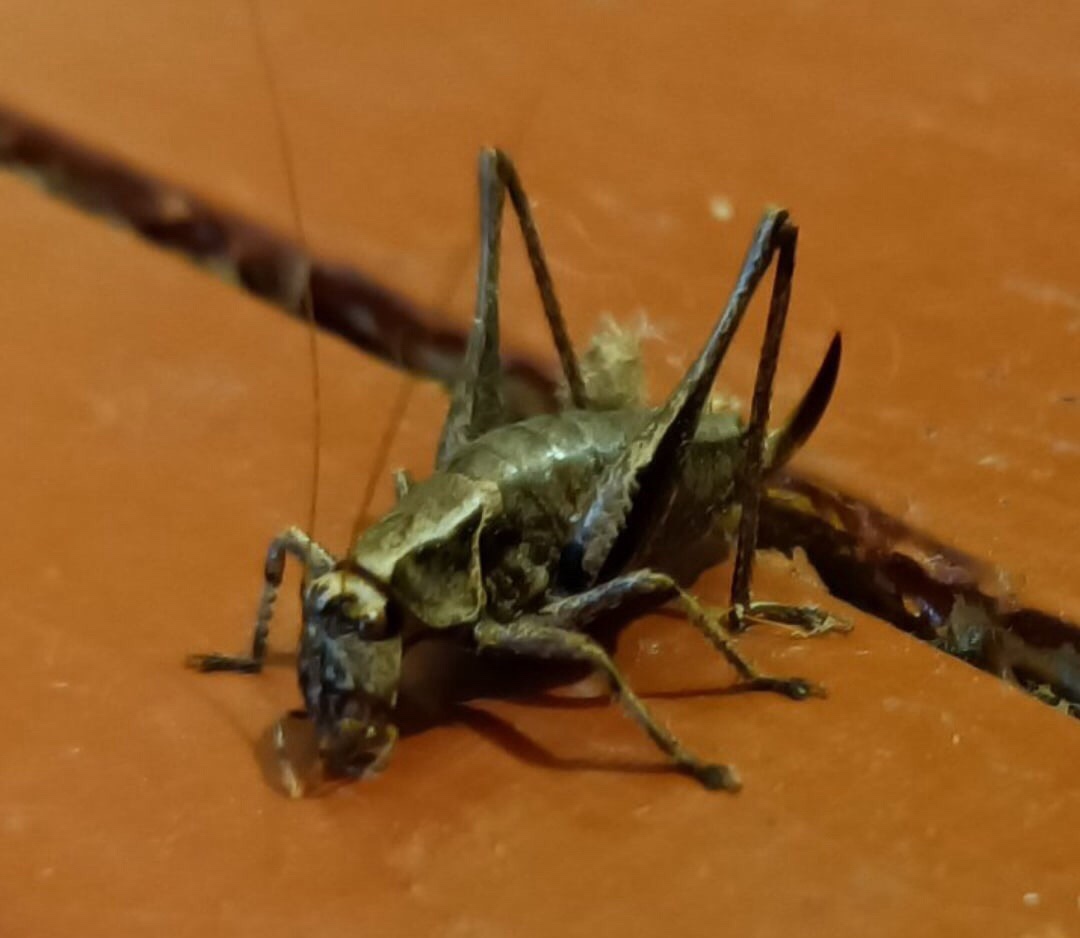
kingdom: Animalia
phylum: Arthropoda
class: Insecta
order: Orthoptera
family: Tettigoniidae
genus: Pholidoptera
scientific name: Pholidoptera griseoaptera
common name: Dark bush-cricket
